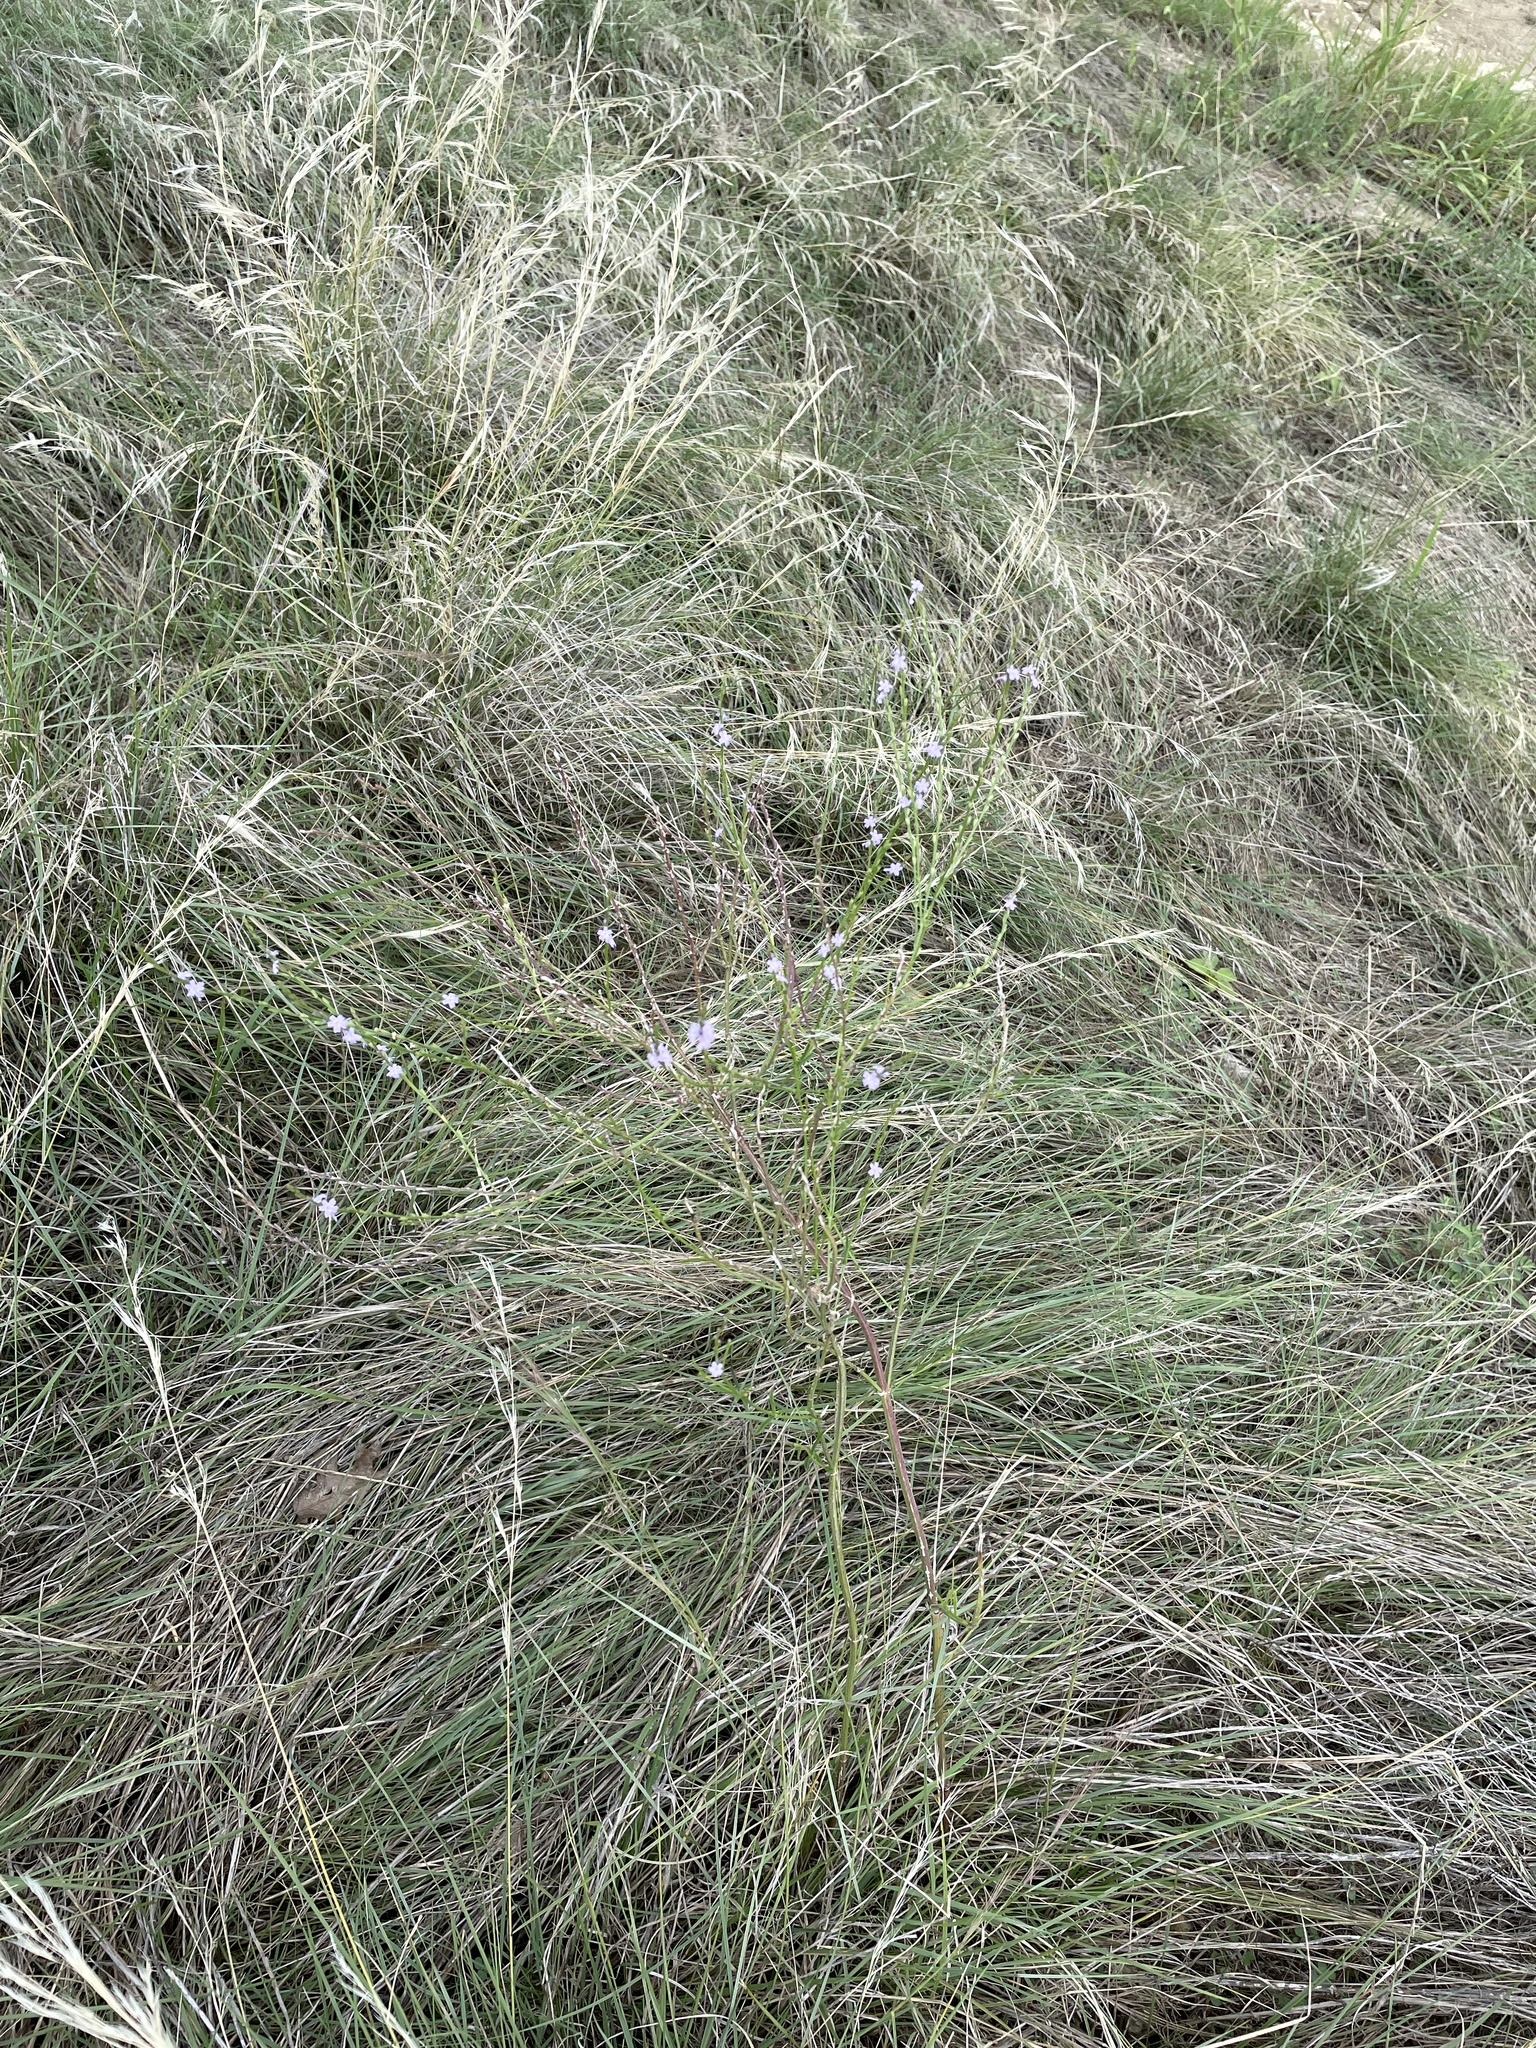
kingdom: Plantae
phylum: Tracheophyta
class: Magnoliopsida
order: Lamiales
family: Verbenaceae
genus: Verbena
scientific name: Verbena halei
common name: Texas vervain
